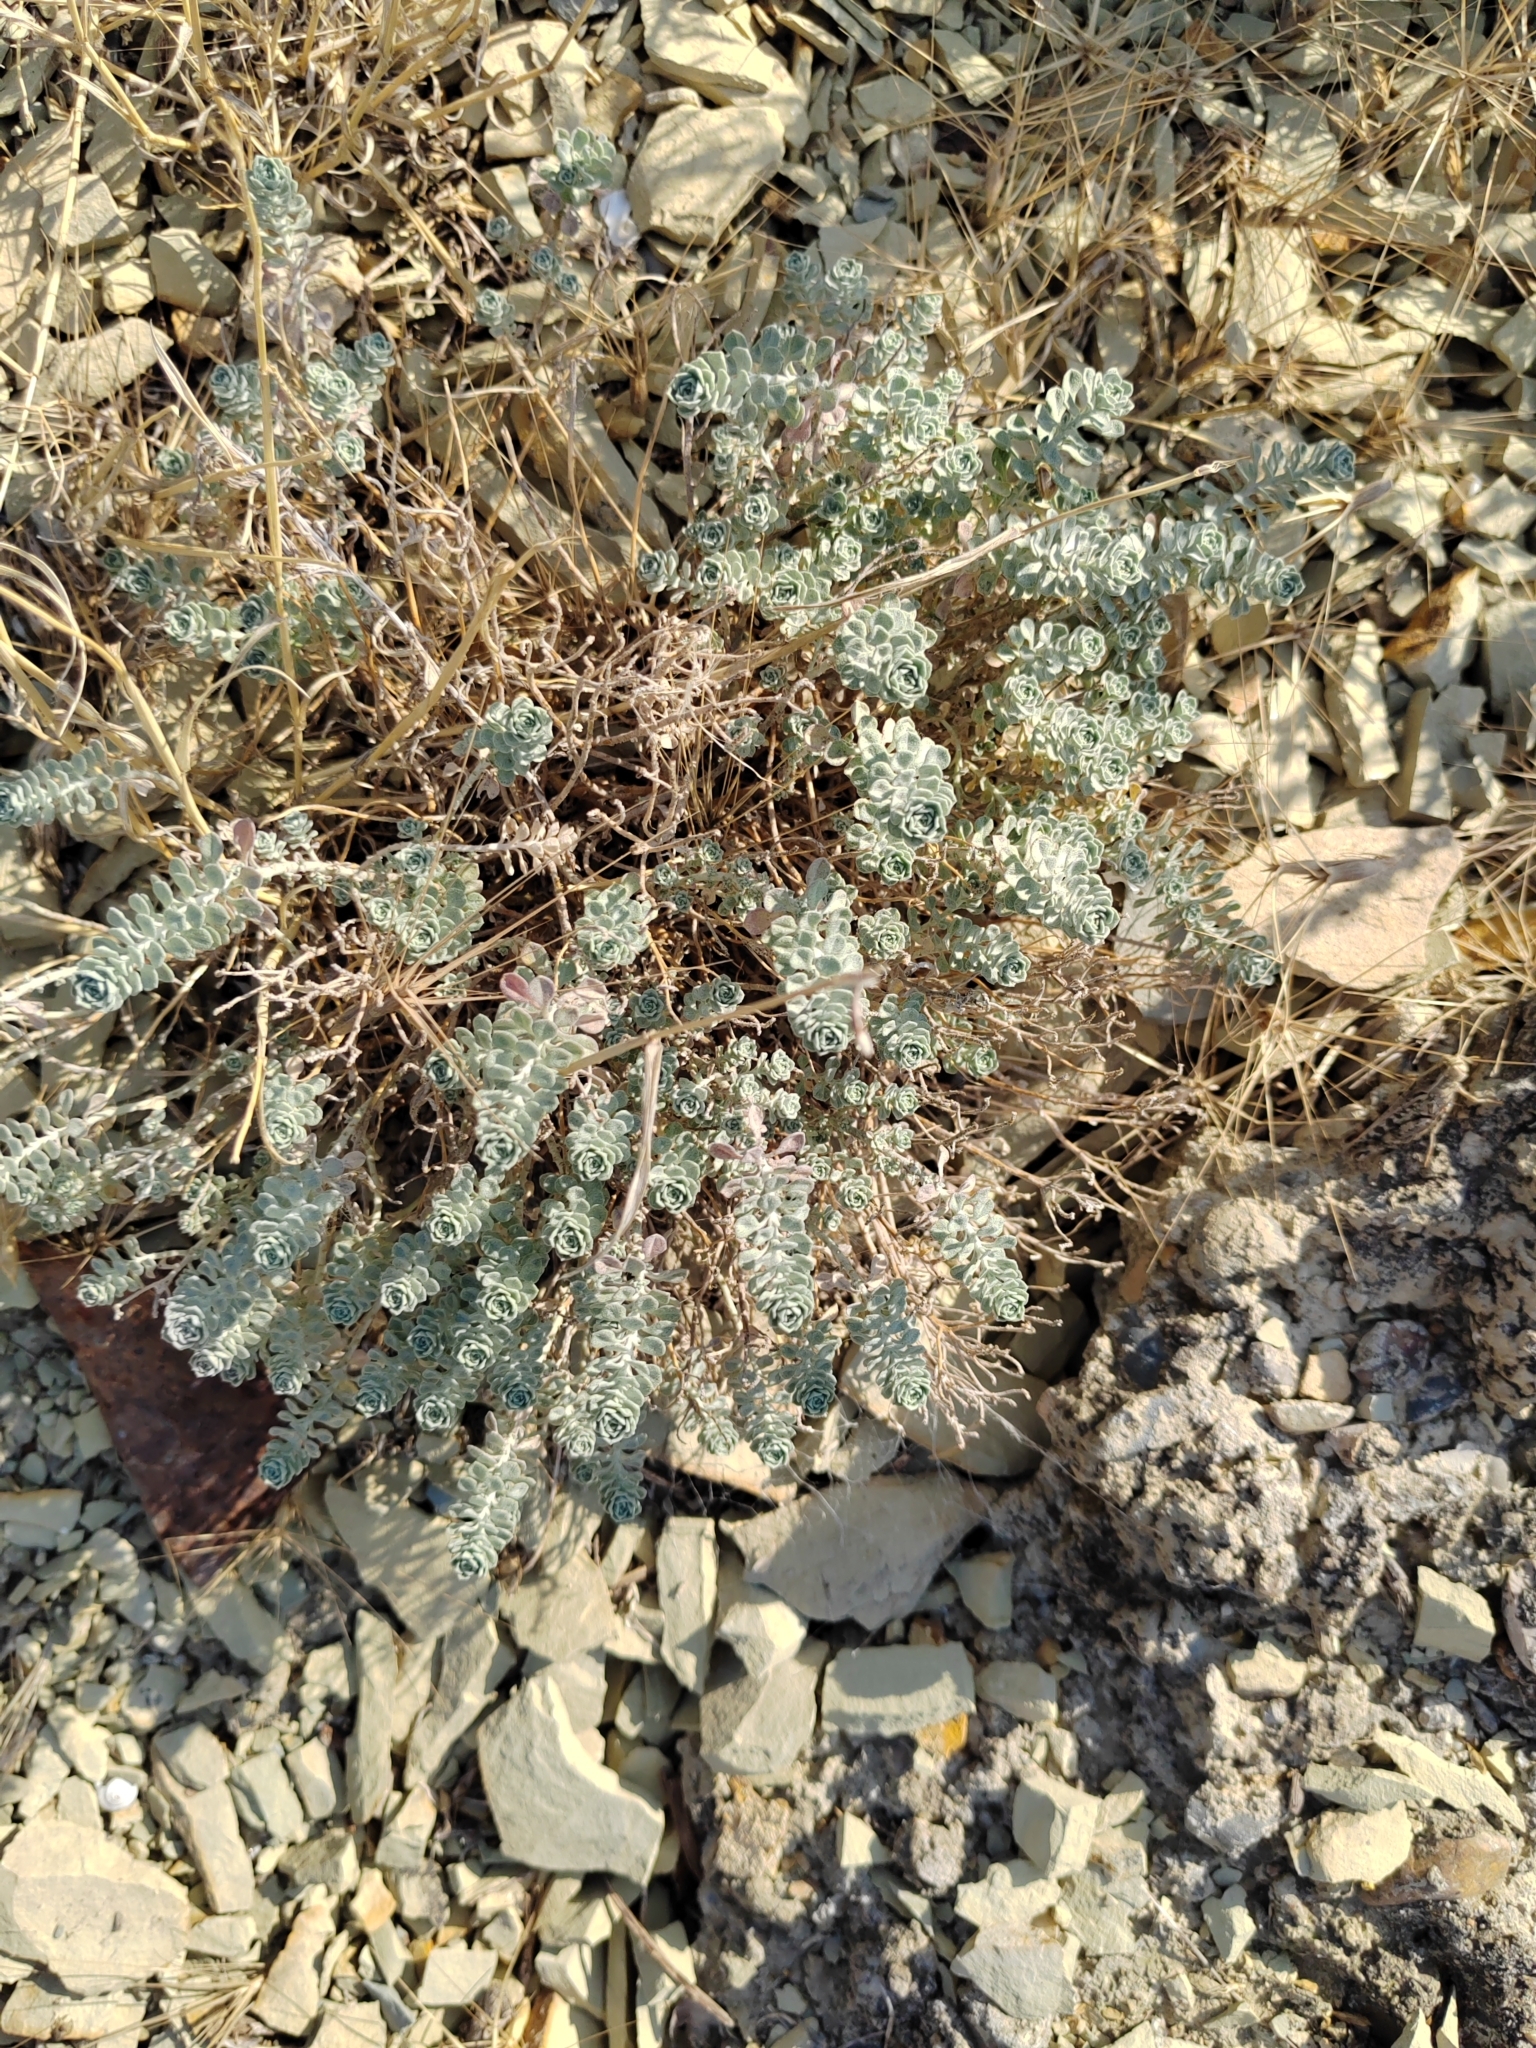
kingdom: Plantae
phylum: Tracheophyta
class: Magnoliopsida
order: Brassicales
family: Brassicaceae
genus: Odontarrhena
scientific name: Odontarrhena obtusifolia
